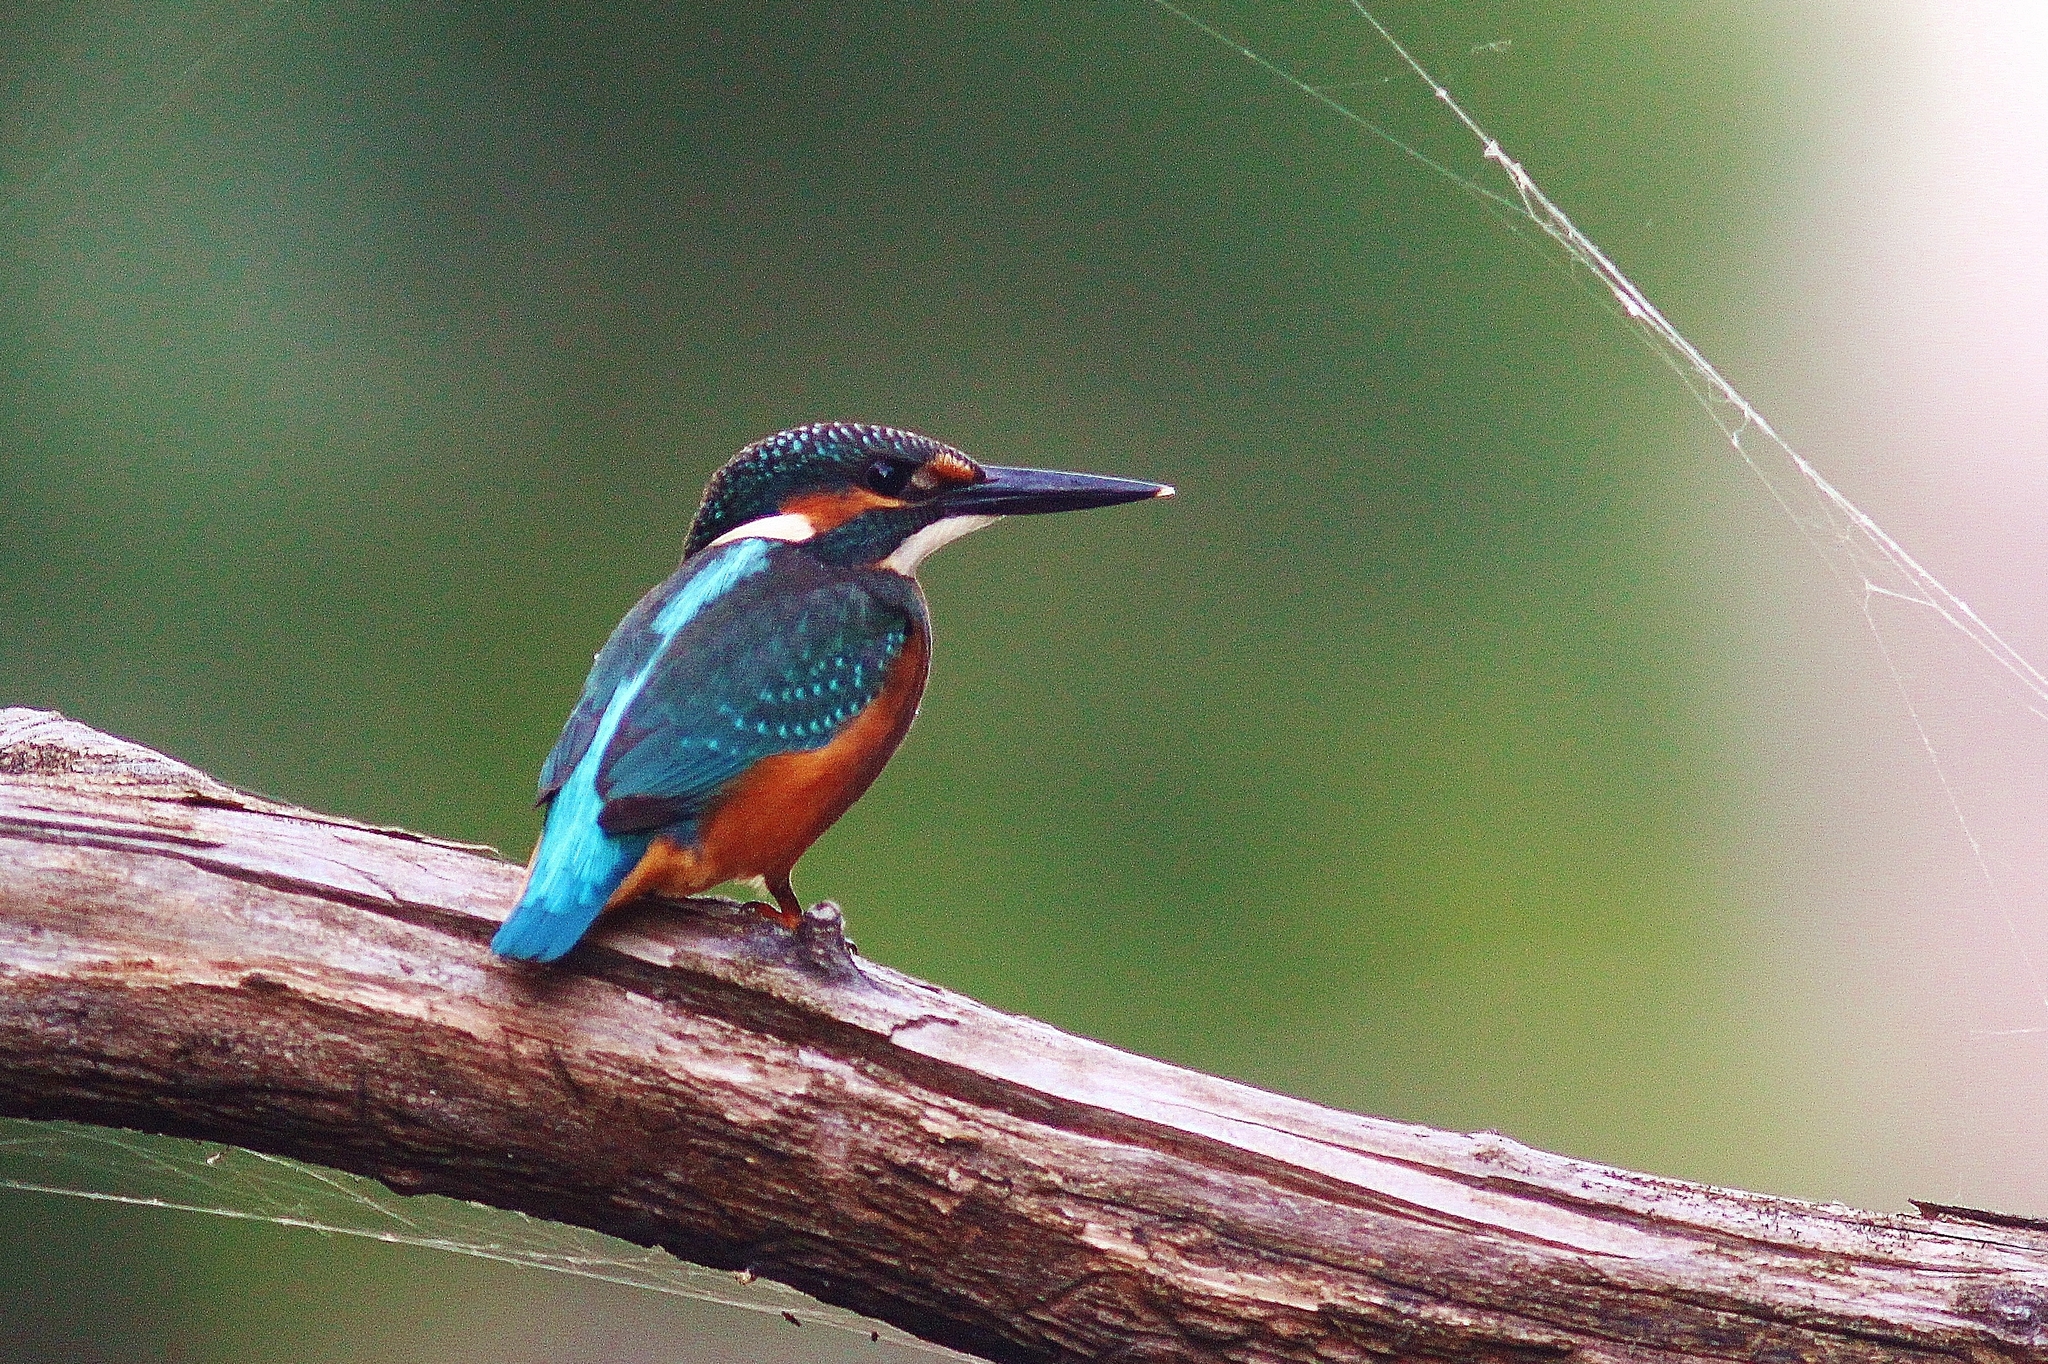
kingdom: Animalia
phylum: Chordata
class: Aves
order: Coraciiformes
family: Alcedinidae
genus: Alcedo
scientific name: Alcedo atthis
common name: Common kingfisher
